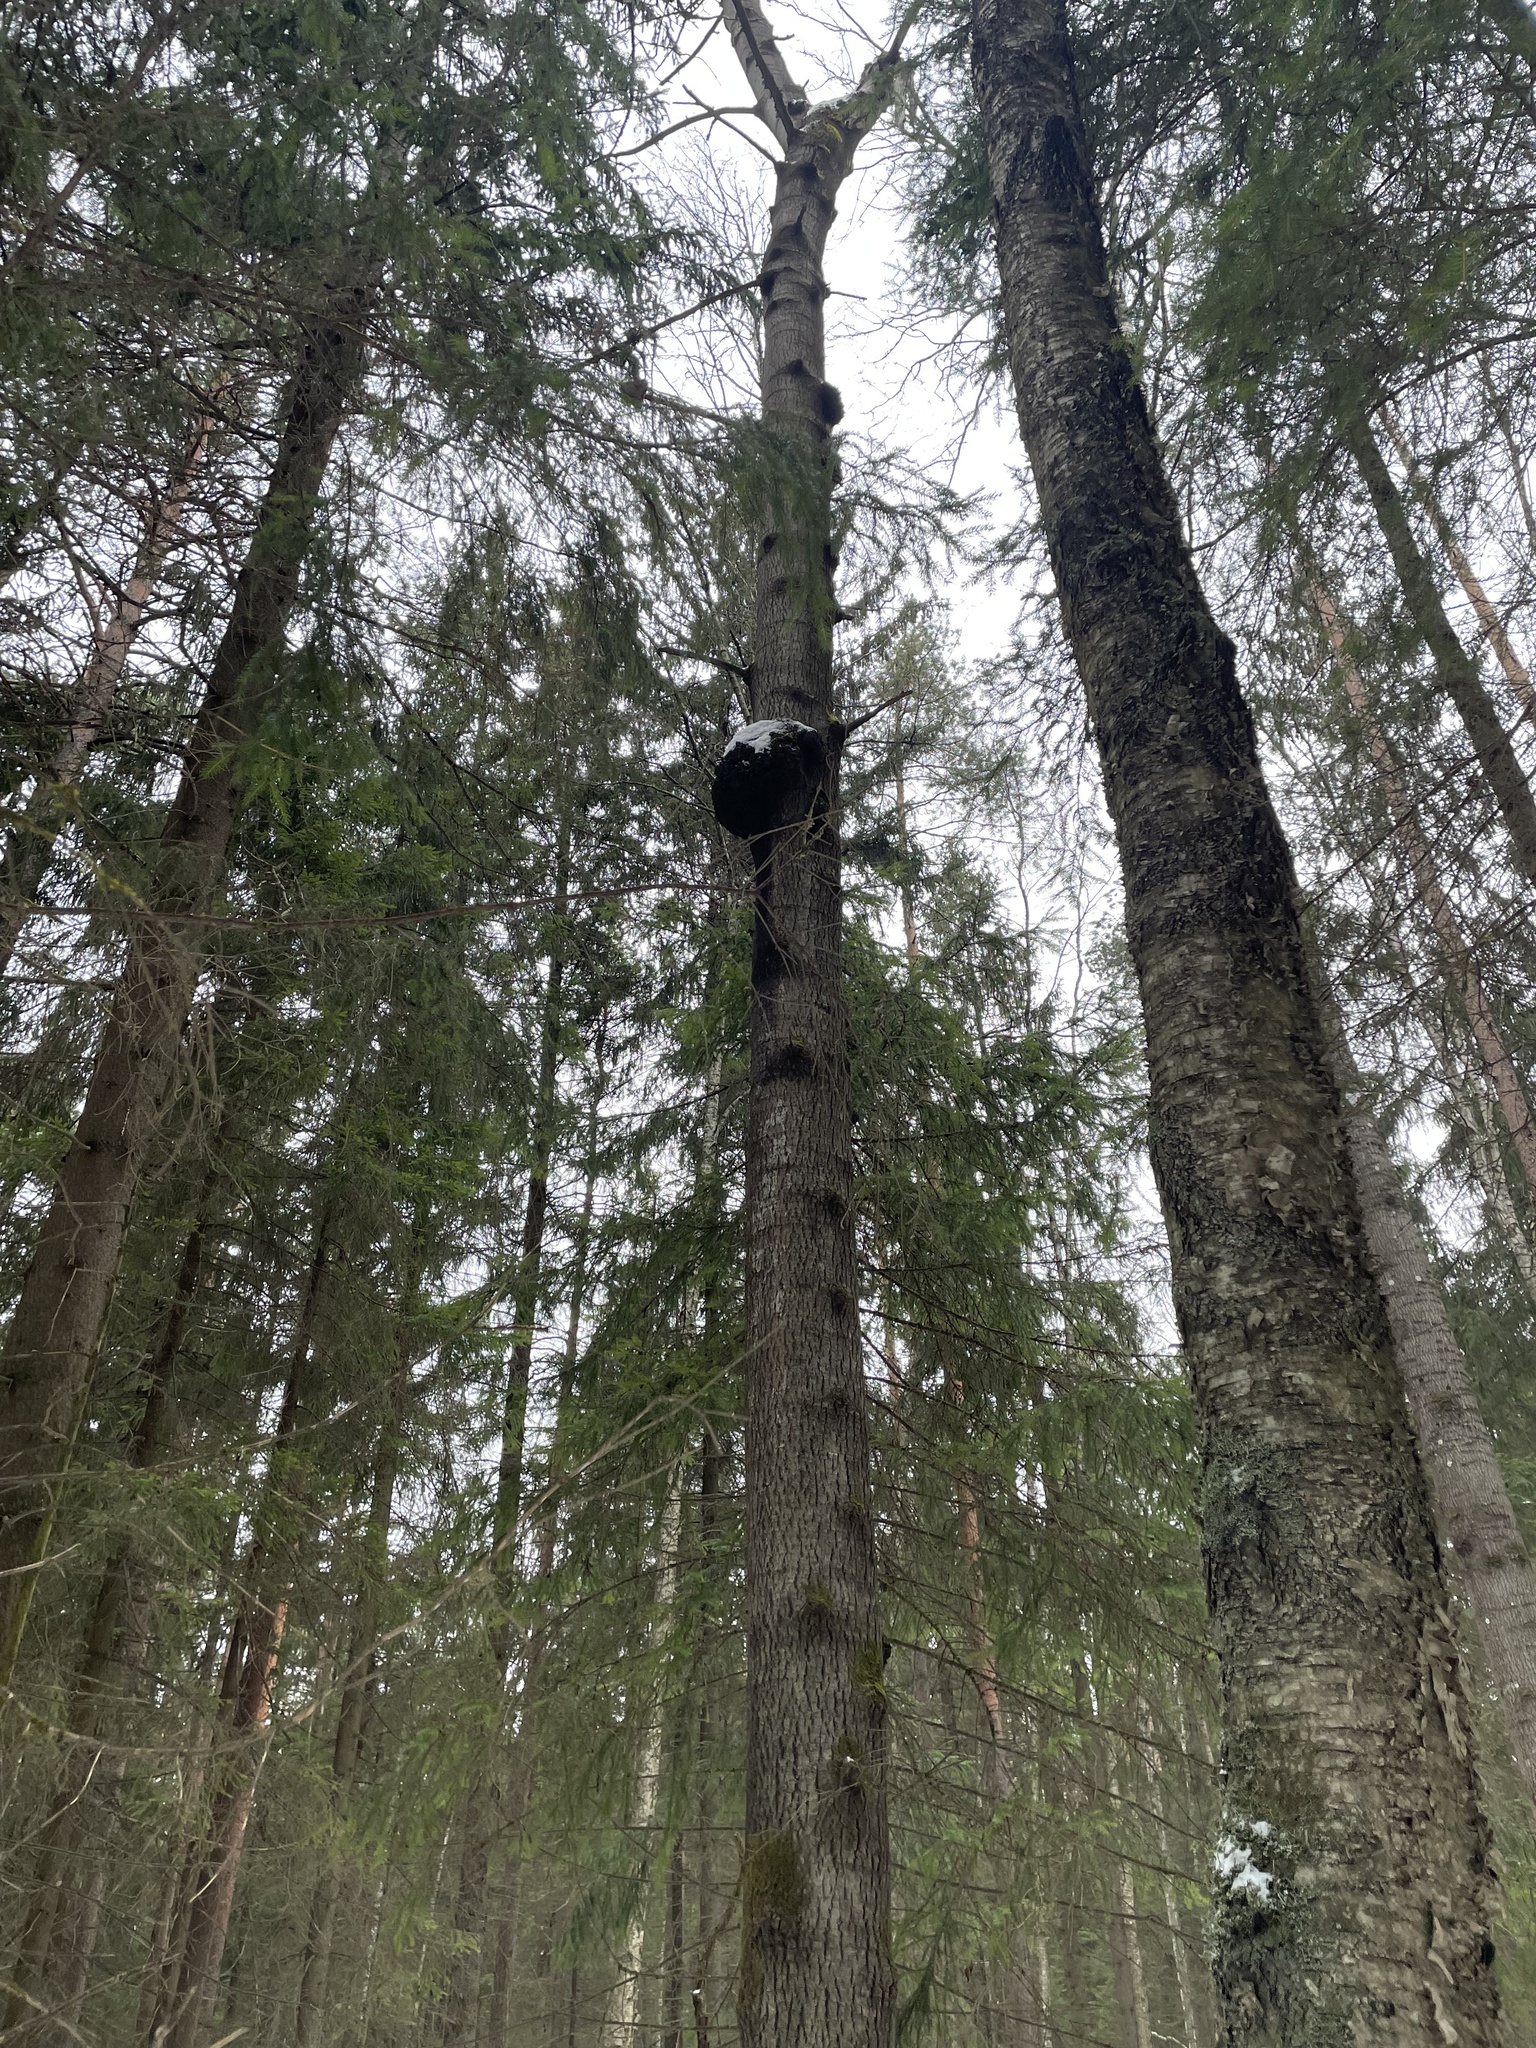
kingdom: Bacteria
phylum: Proteobacteria
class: Alphaproteobacteria
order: Rhizobiales
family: Rhizobiaceae
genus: Rhizobium
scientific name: Rhizobium Agrobacterium radiobacter
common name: Bacterial crown gall
